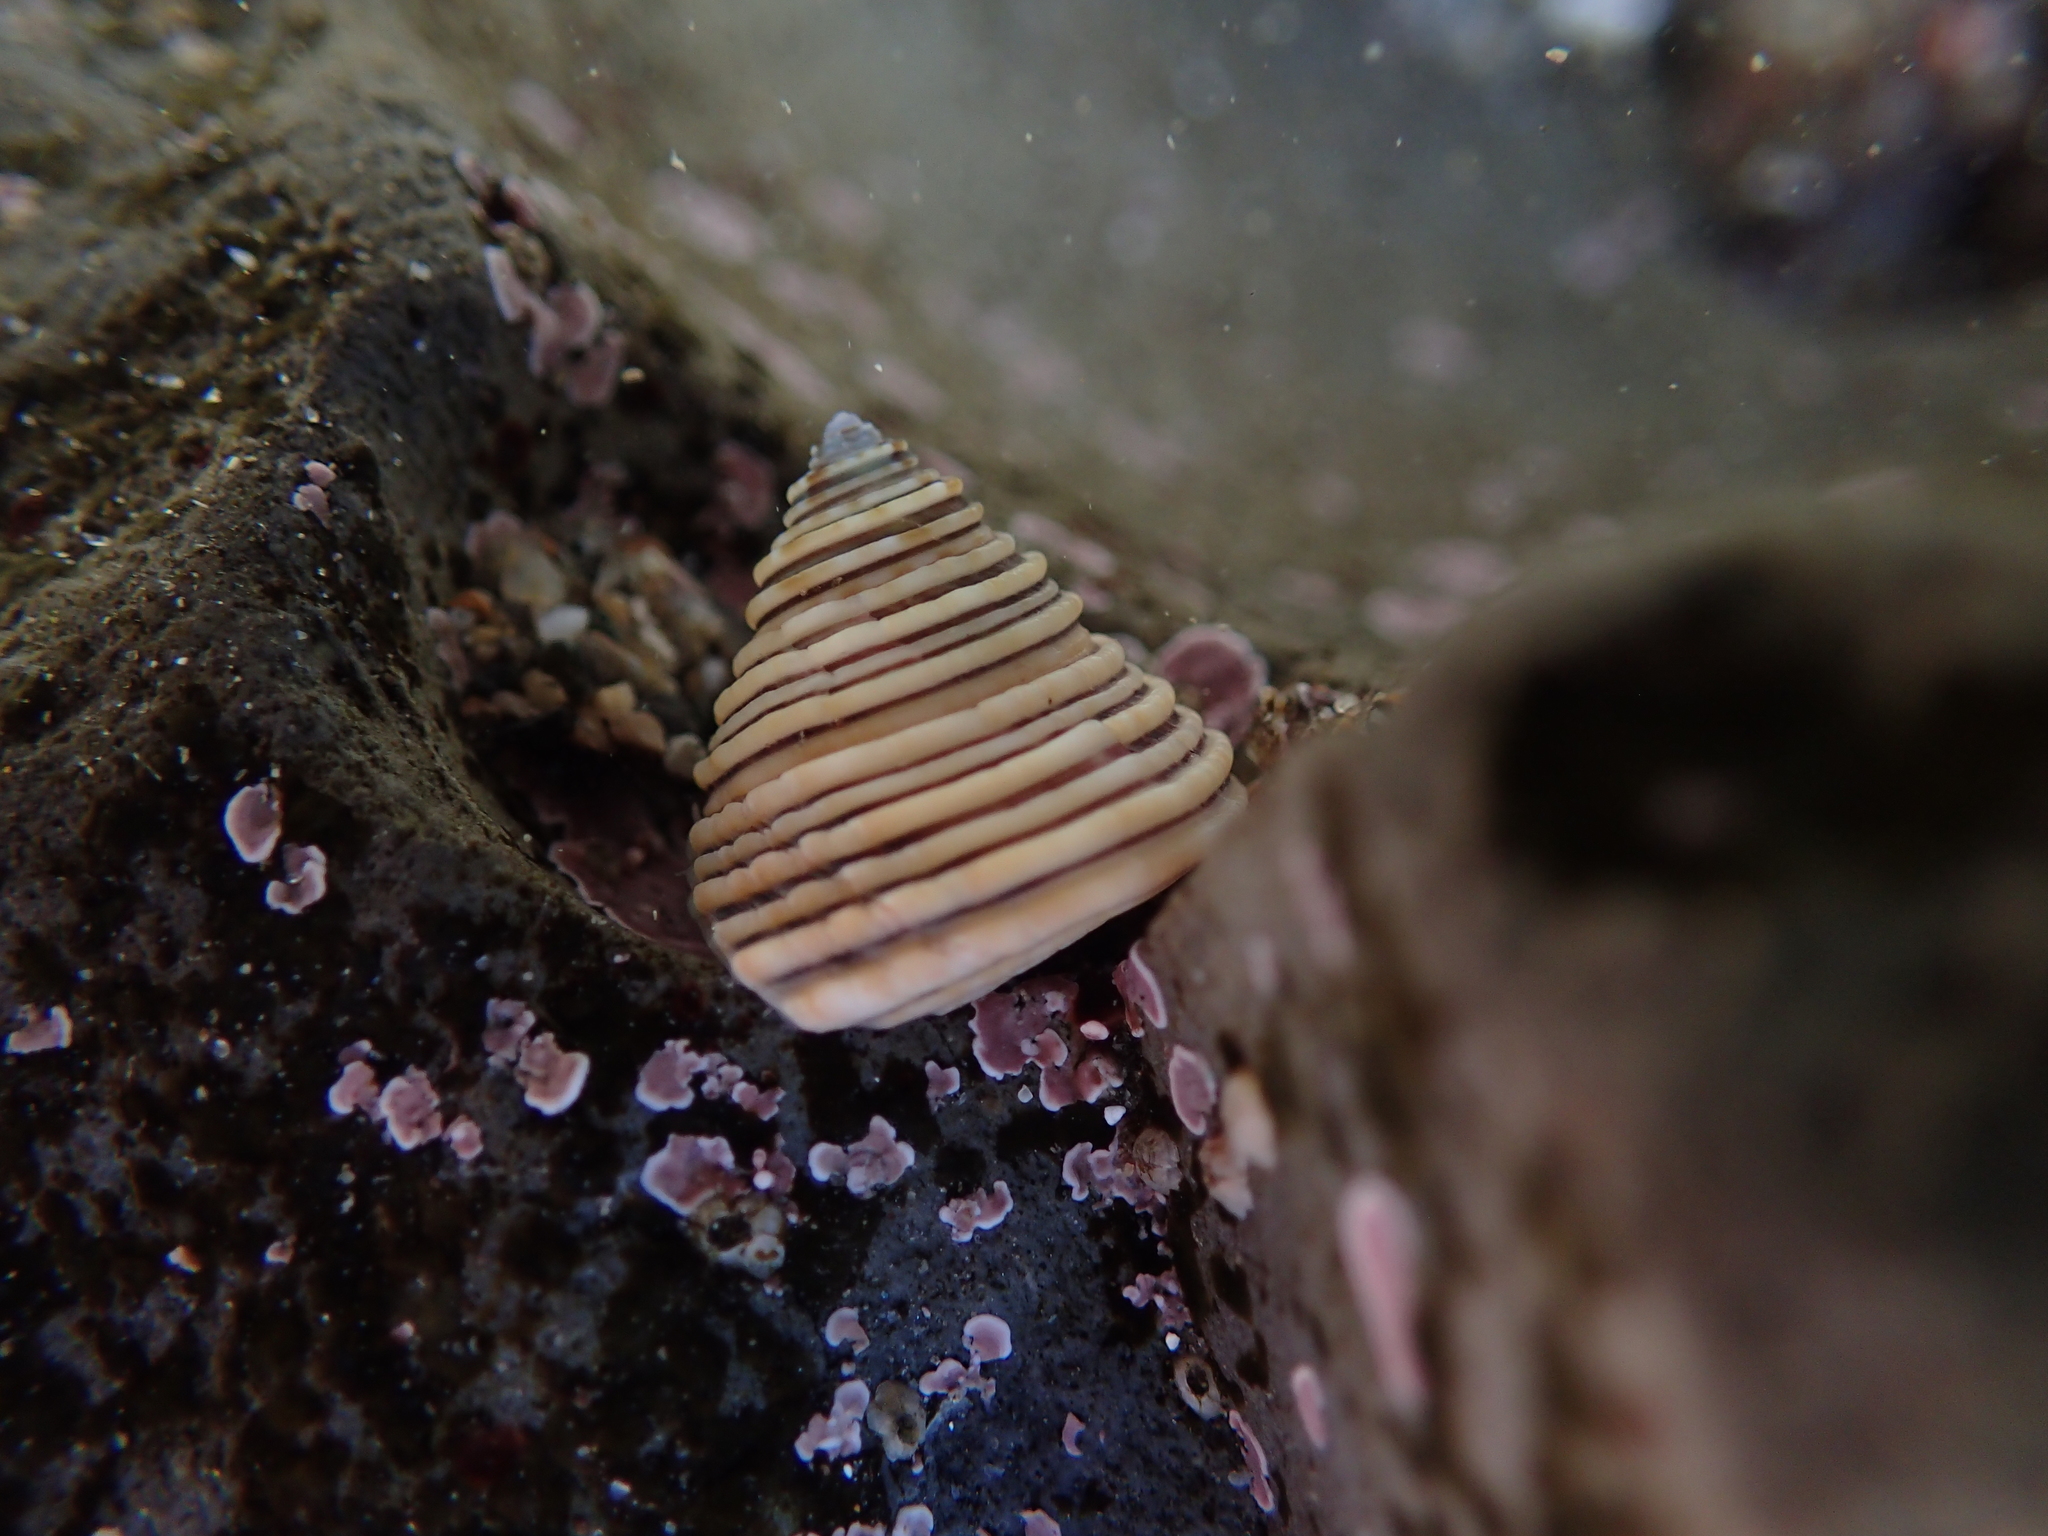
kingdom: Animalia
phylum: Mollusca
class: Gastropoda
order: Trochida
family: Calliostomatidae
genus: Calliostoma
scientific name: Calliostoma canaliculatum
